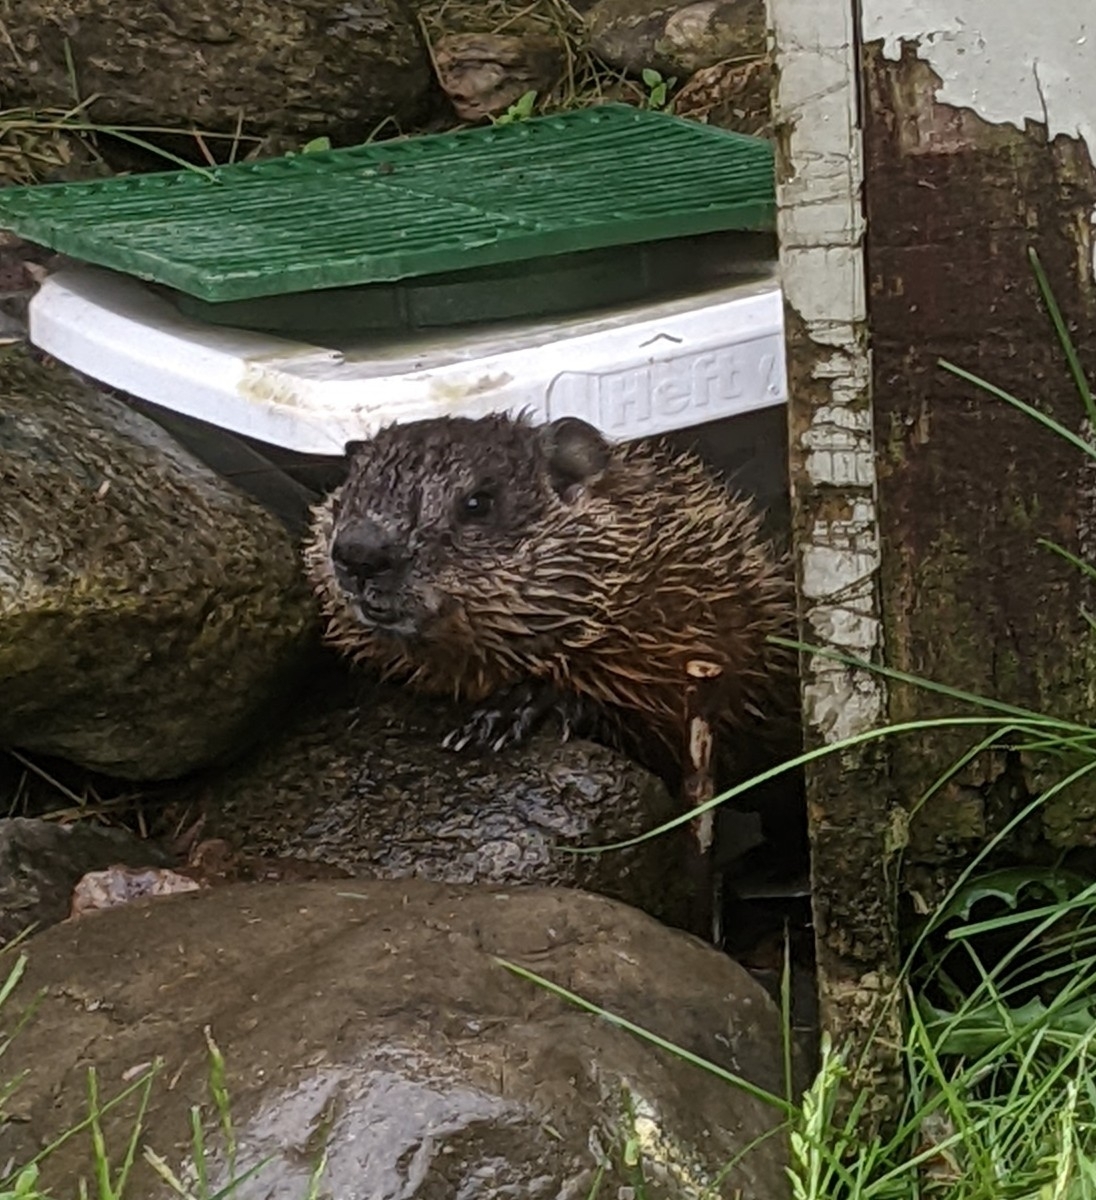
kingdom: Animalia
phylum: Chordata
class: Mammalia
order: Rodentia
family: Sciuridae
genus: Marmota
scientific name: Marmota monax
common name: Groundhog
